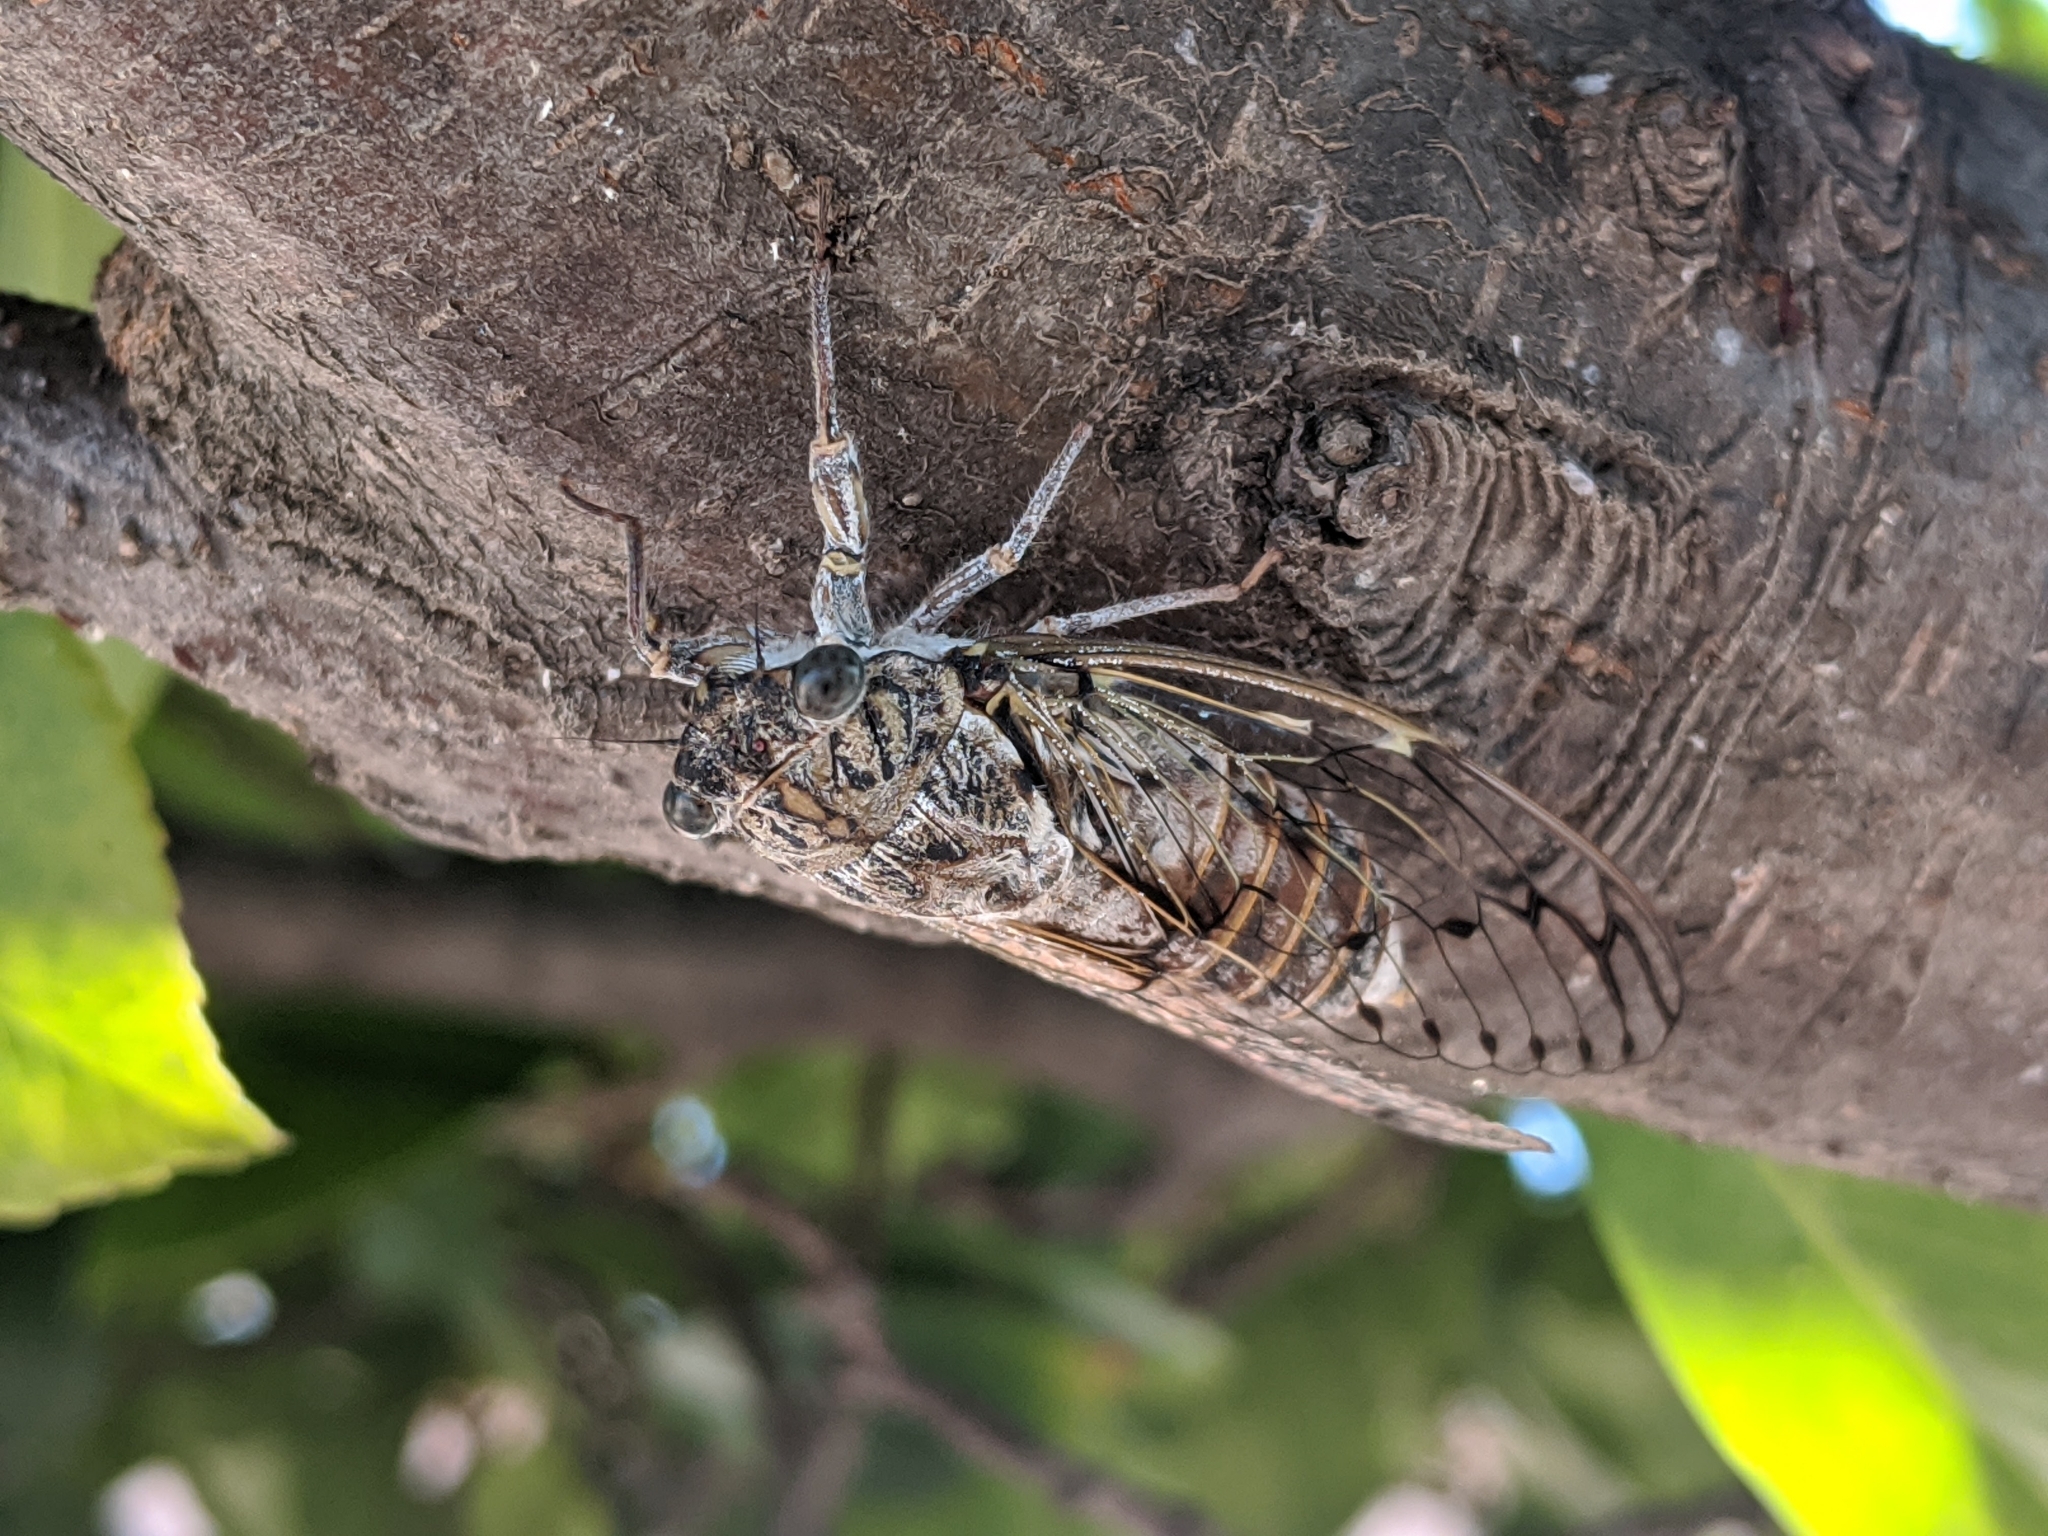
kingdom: Animalia
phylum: Arthropoda
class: Insecta
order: Hemiptera
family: Cicadidae
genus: Cicada
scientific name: Cicada orni
